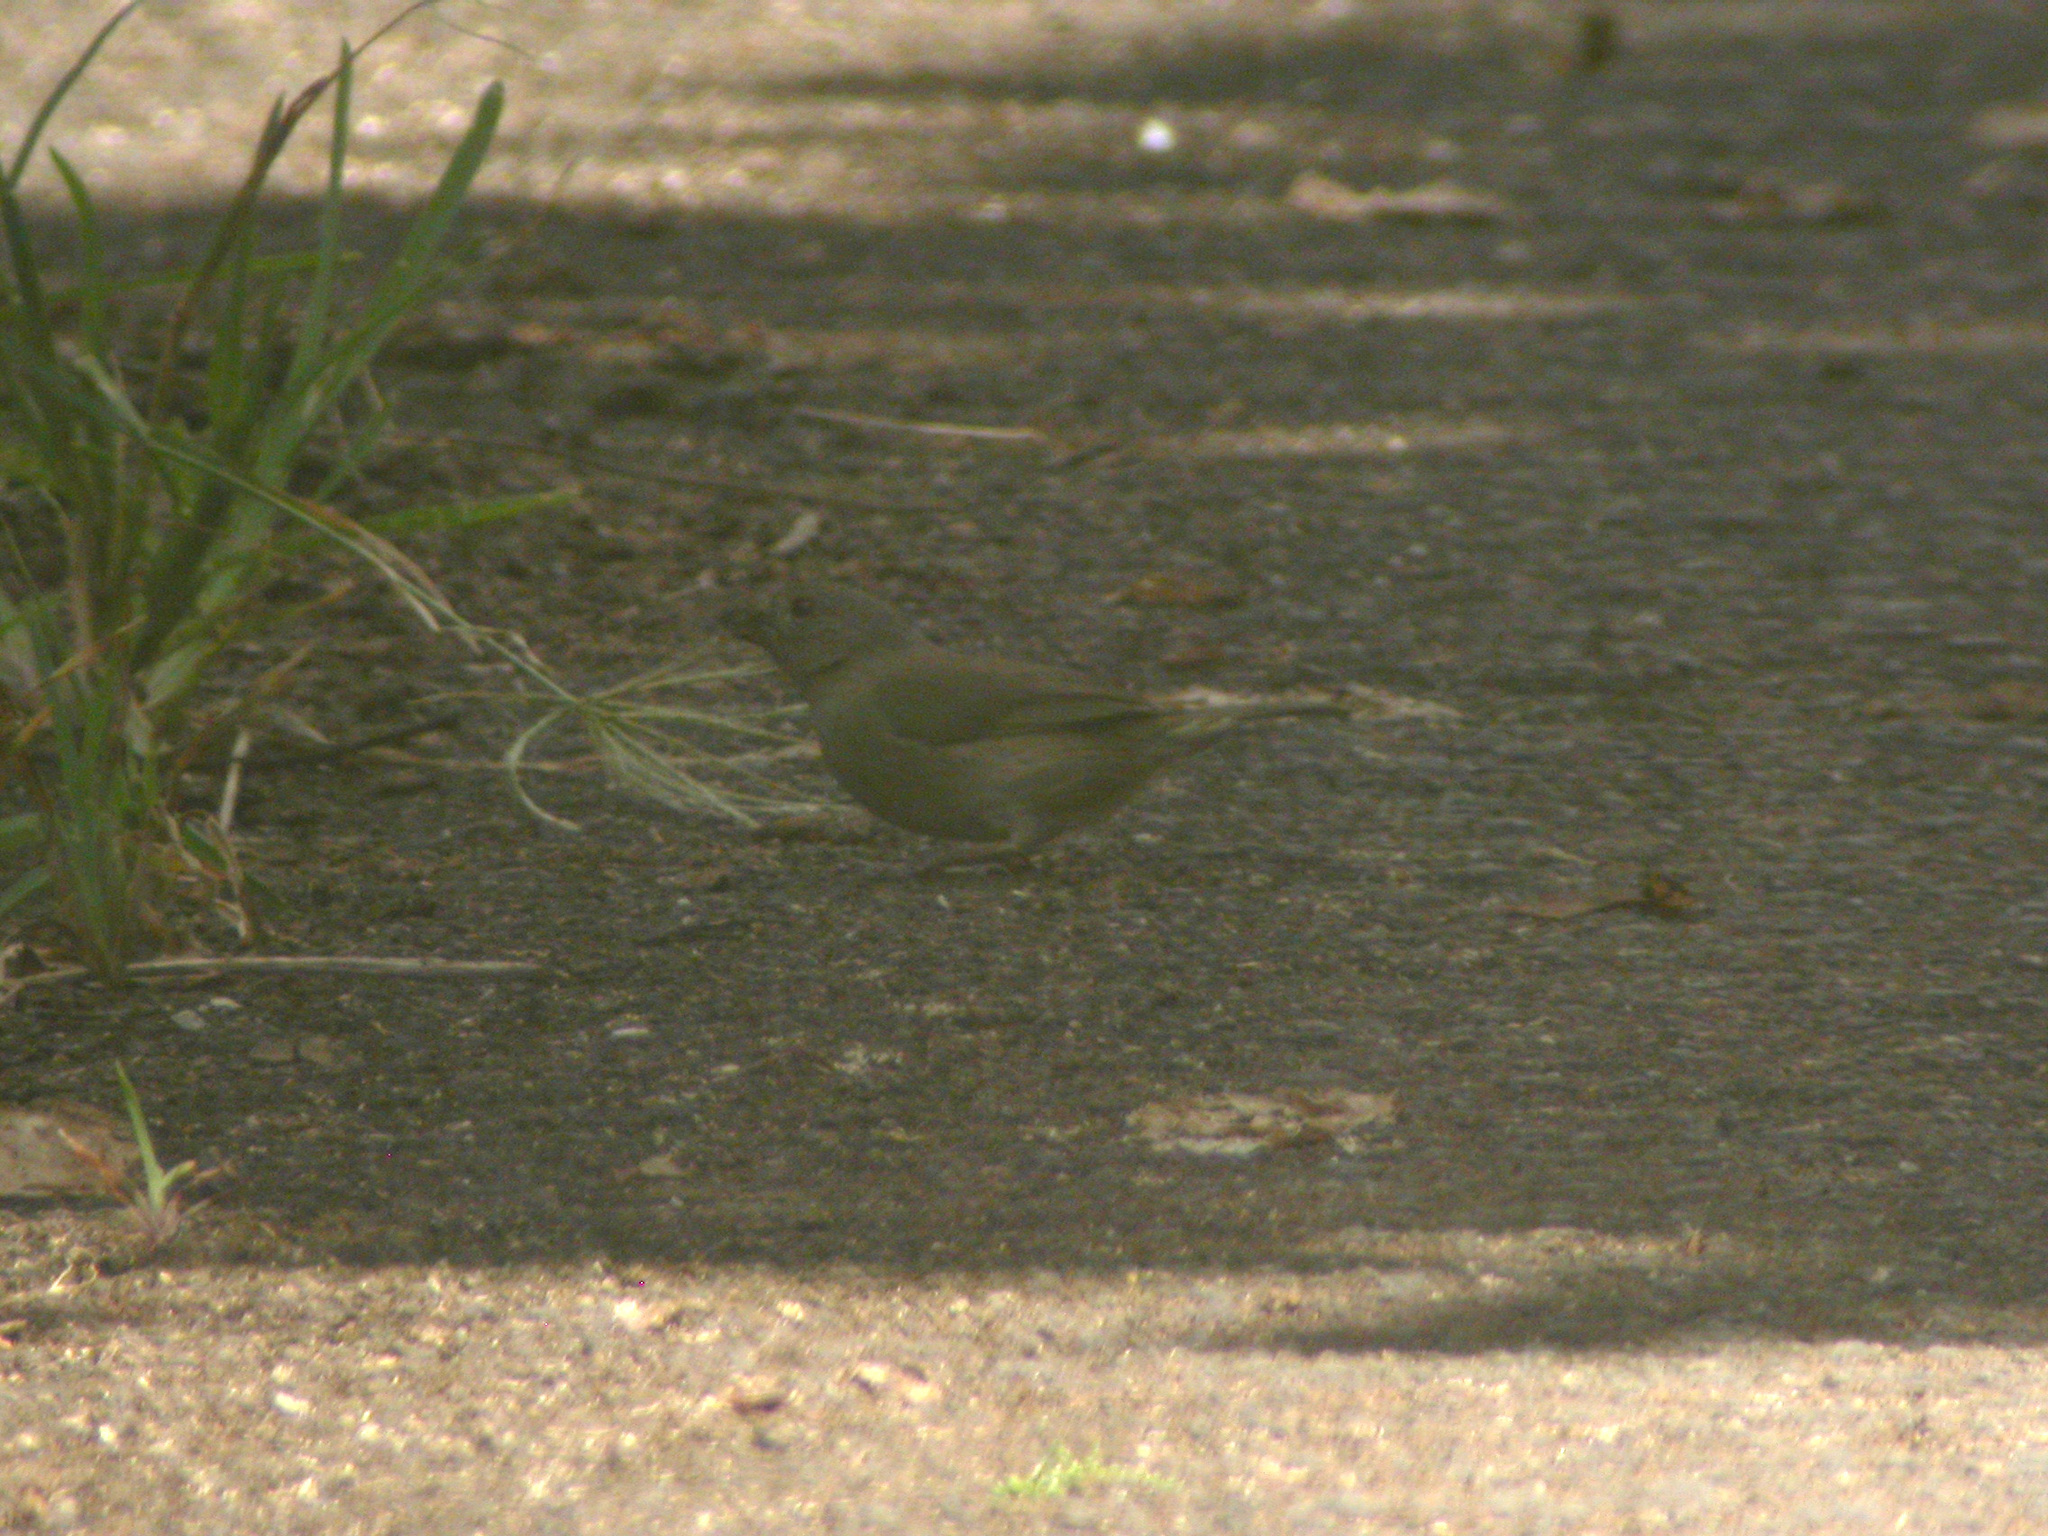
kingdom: Animalia
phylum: Chordata
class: Aves
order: Passeriformes
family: Thraupidae
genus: Melanospiza
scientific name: Melanospiza bicolor
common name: Black-faced grassquit
